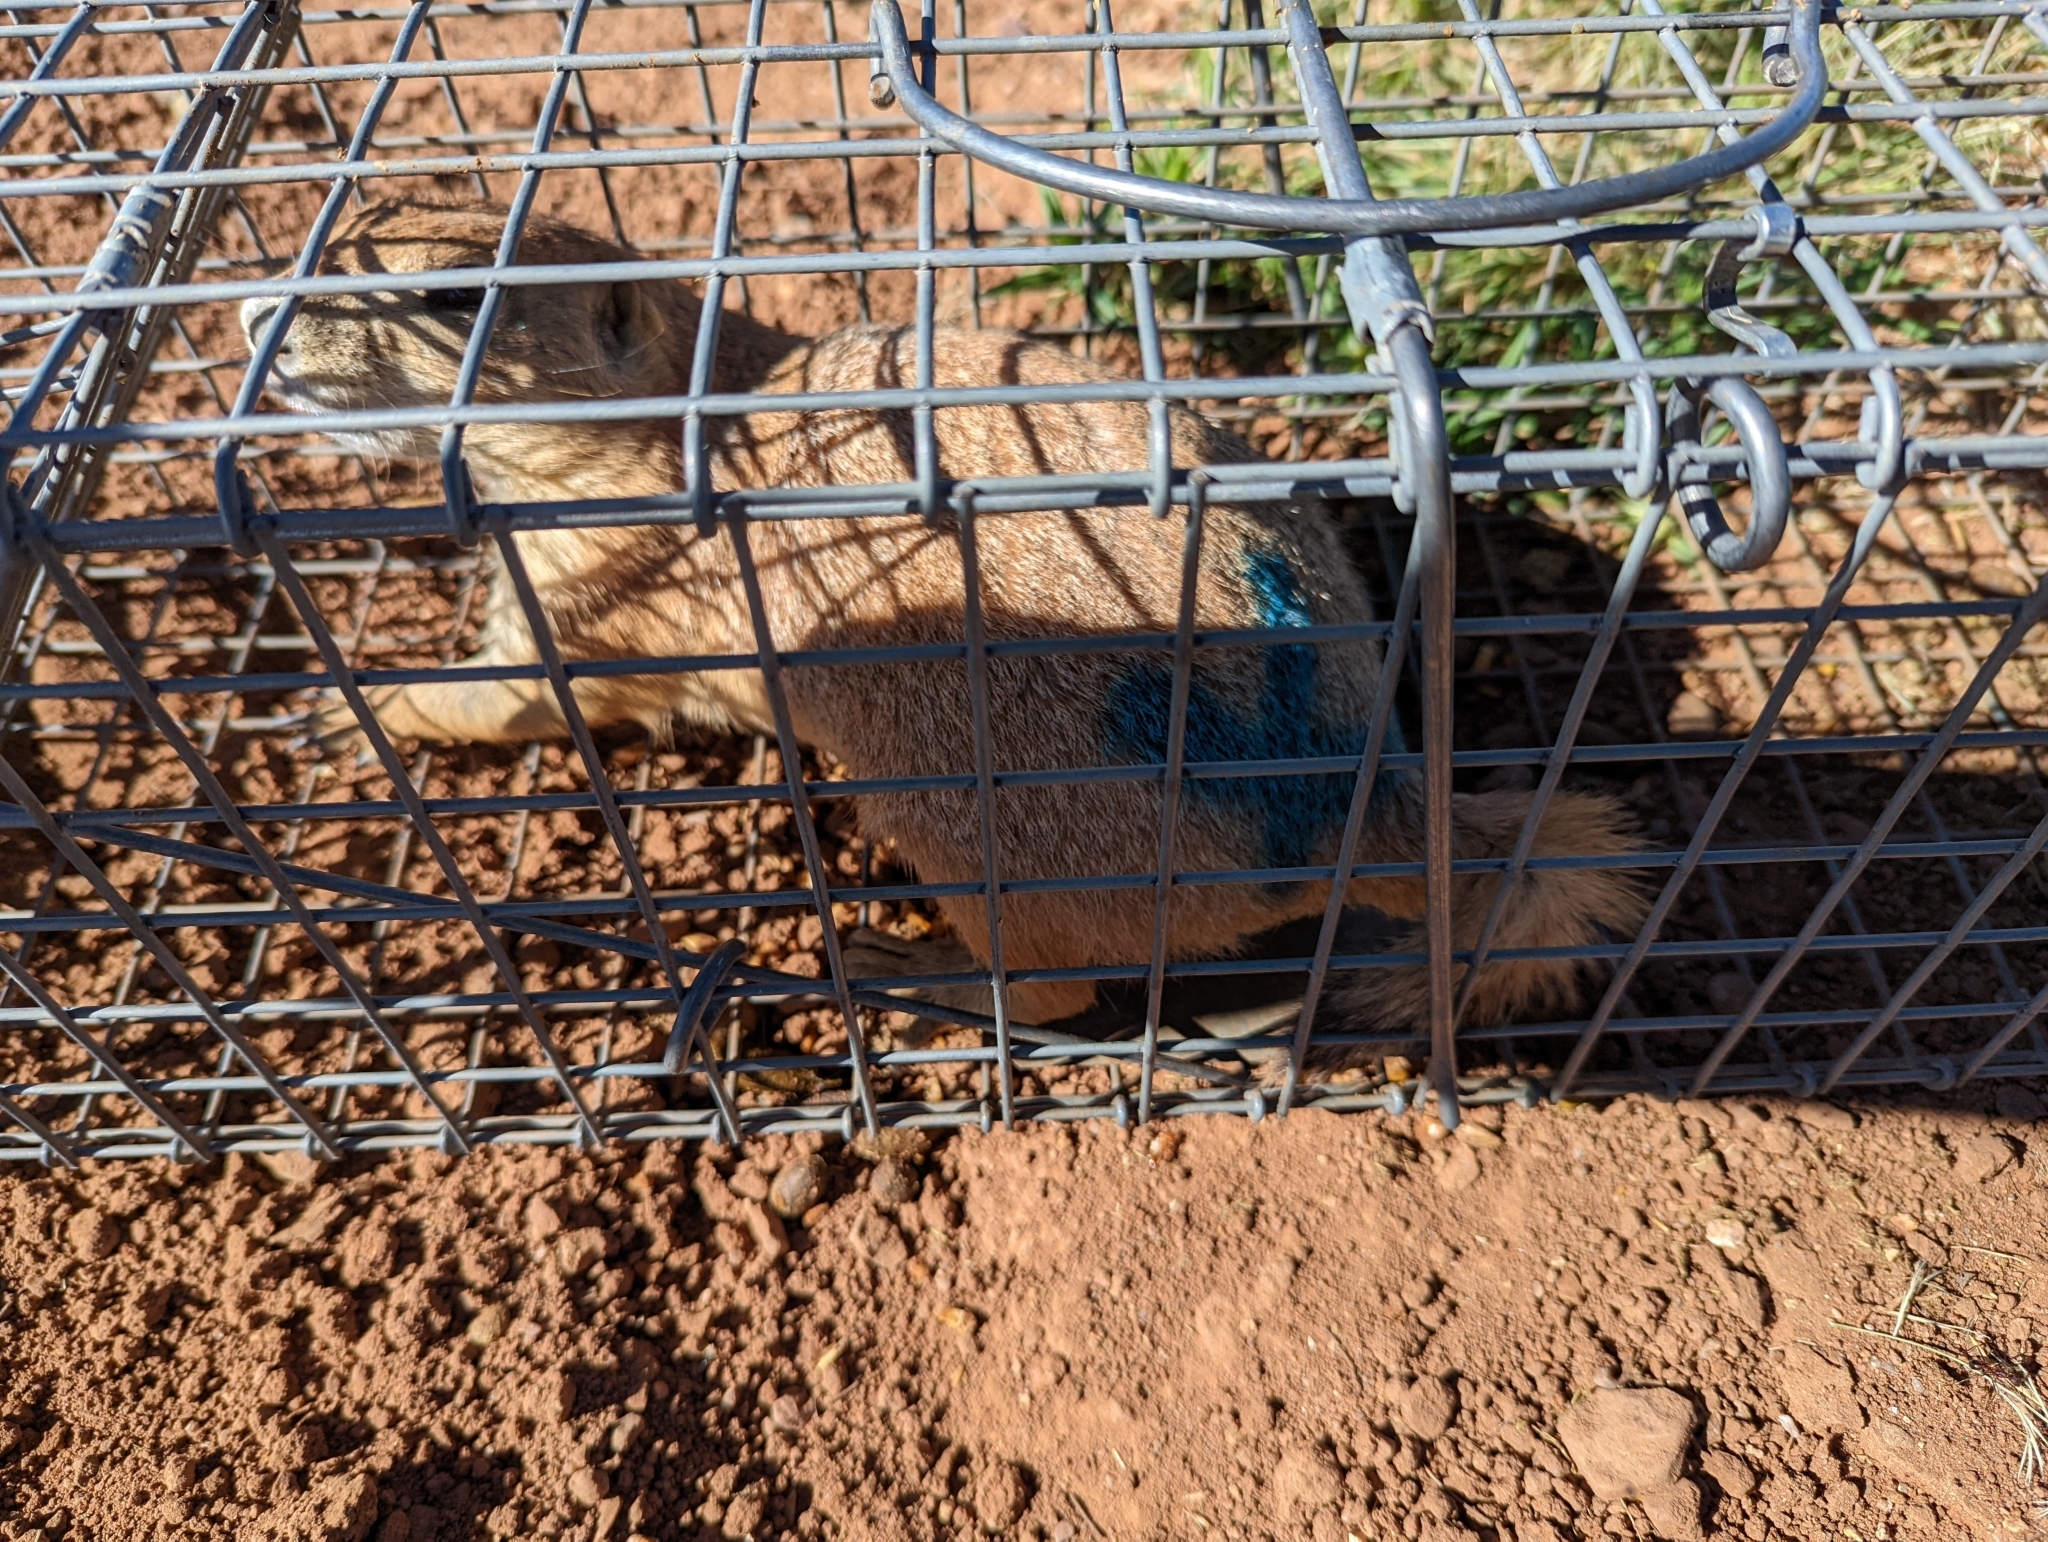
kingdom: Animalia
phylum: Chordata
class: Mammalia
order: Rodentia
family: Sciuridae
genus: Cynomys
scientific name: Cynomys ludovicianus
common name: Black-tailed prairie dog
